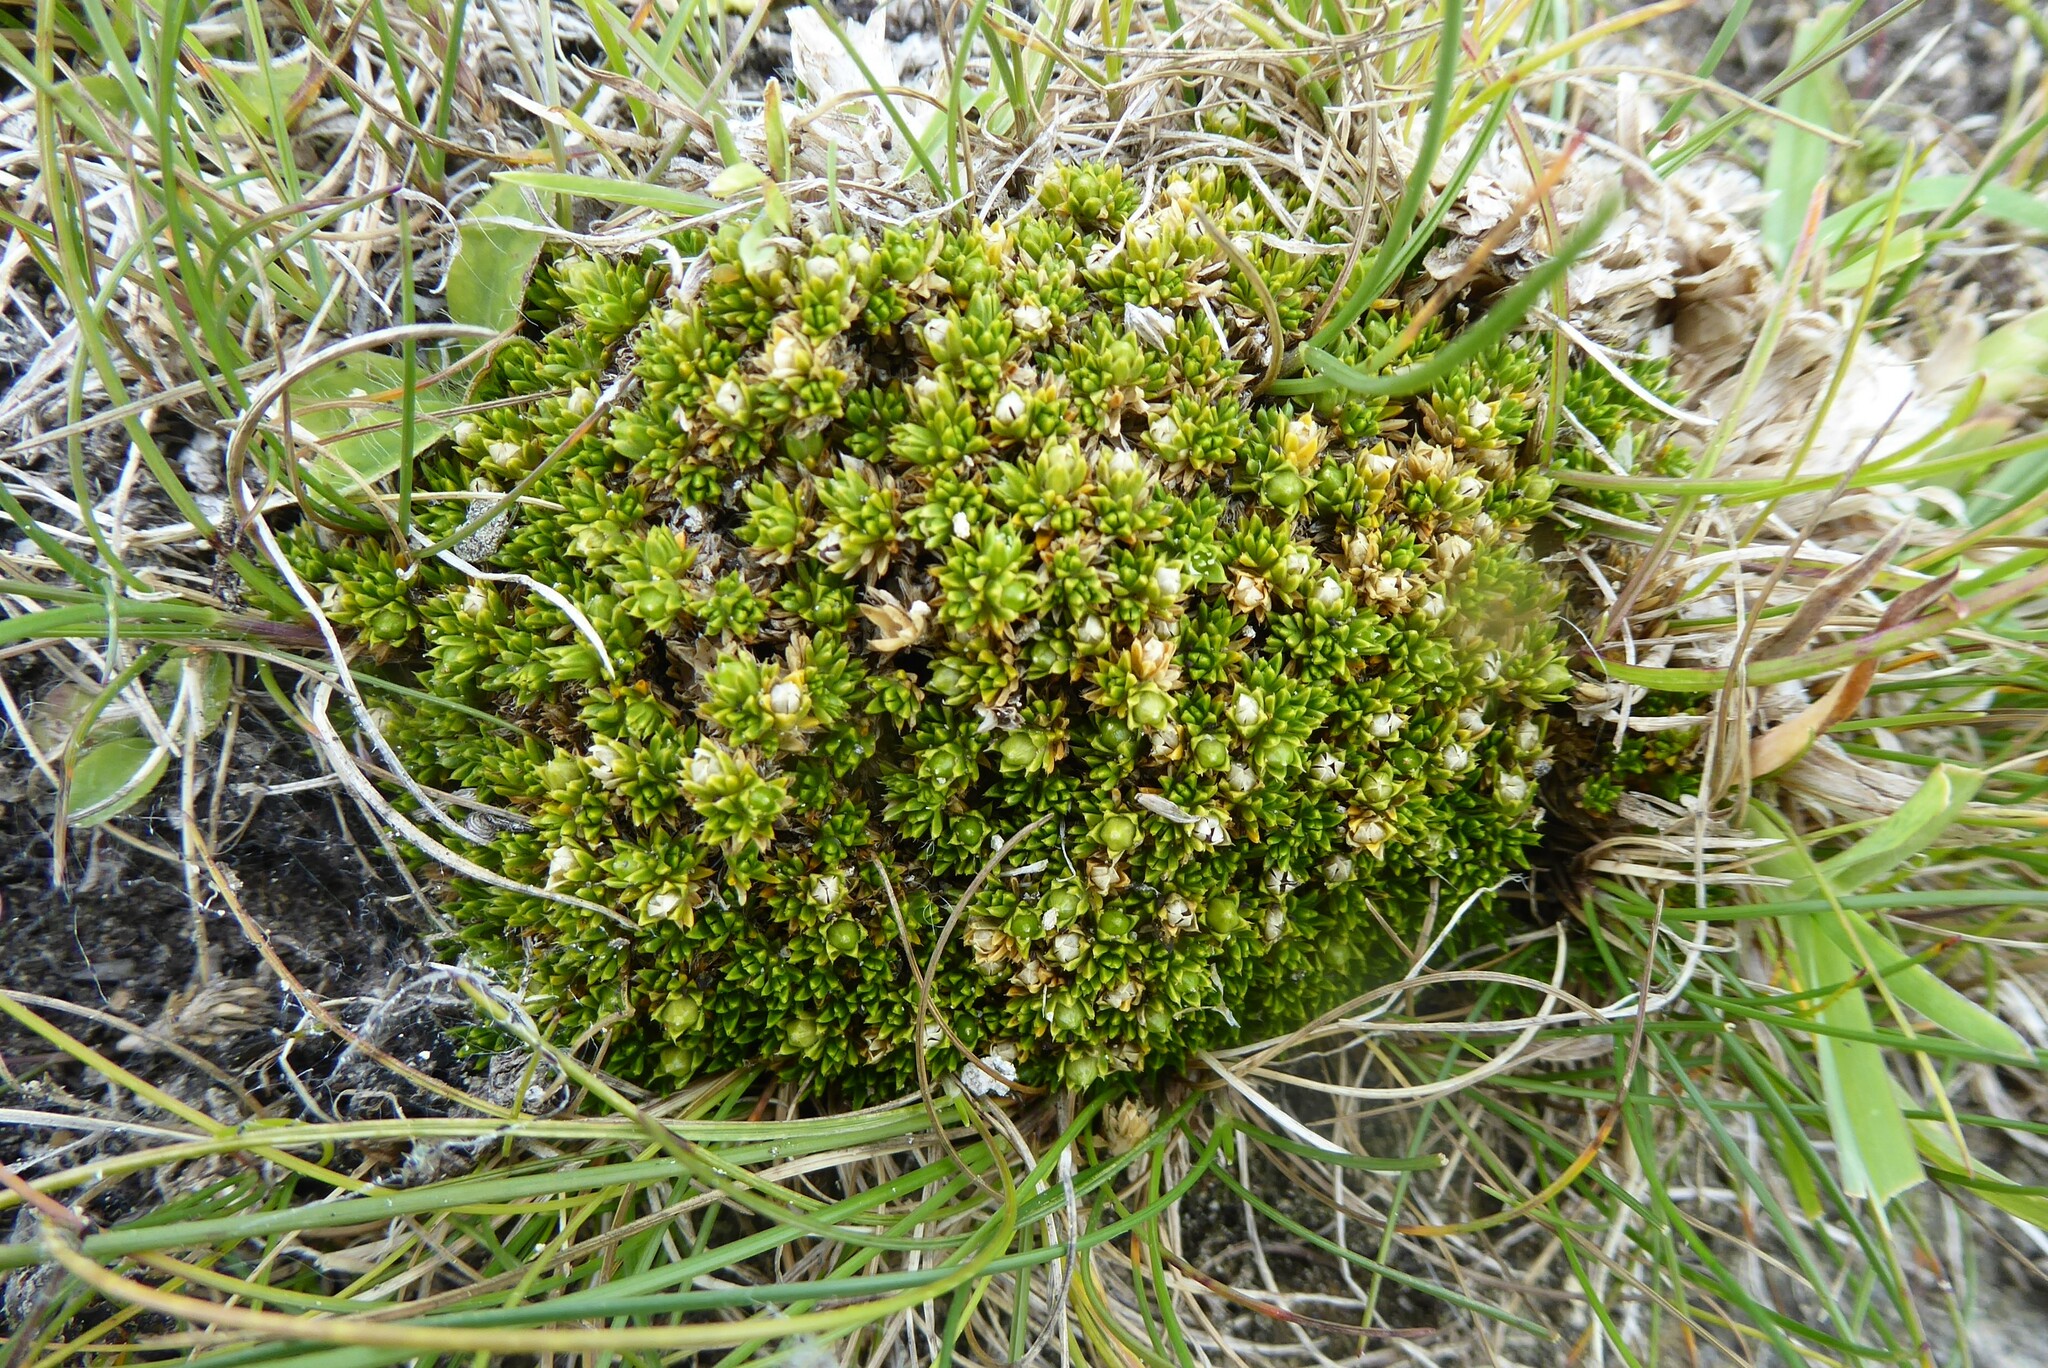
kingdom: Plantae
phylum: Tracheophyta
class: Magnoliopsida
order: Caryophyllales
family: Caryophyllaceae
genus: Colobanthus
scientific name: Colobanthus brevisepalus
